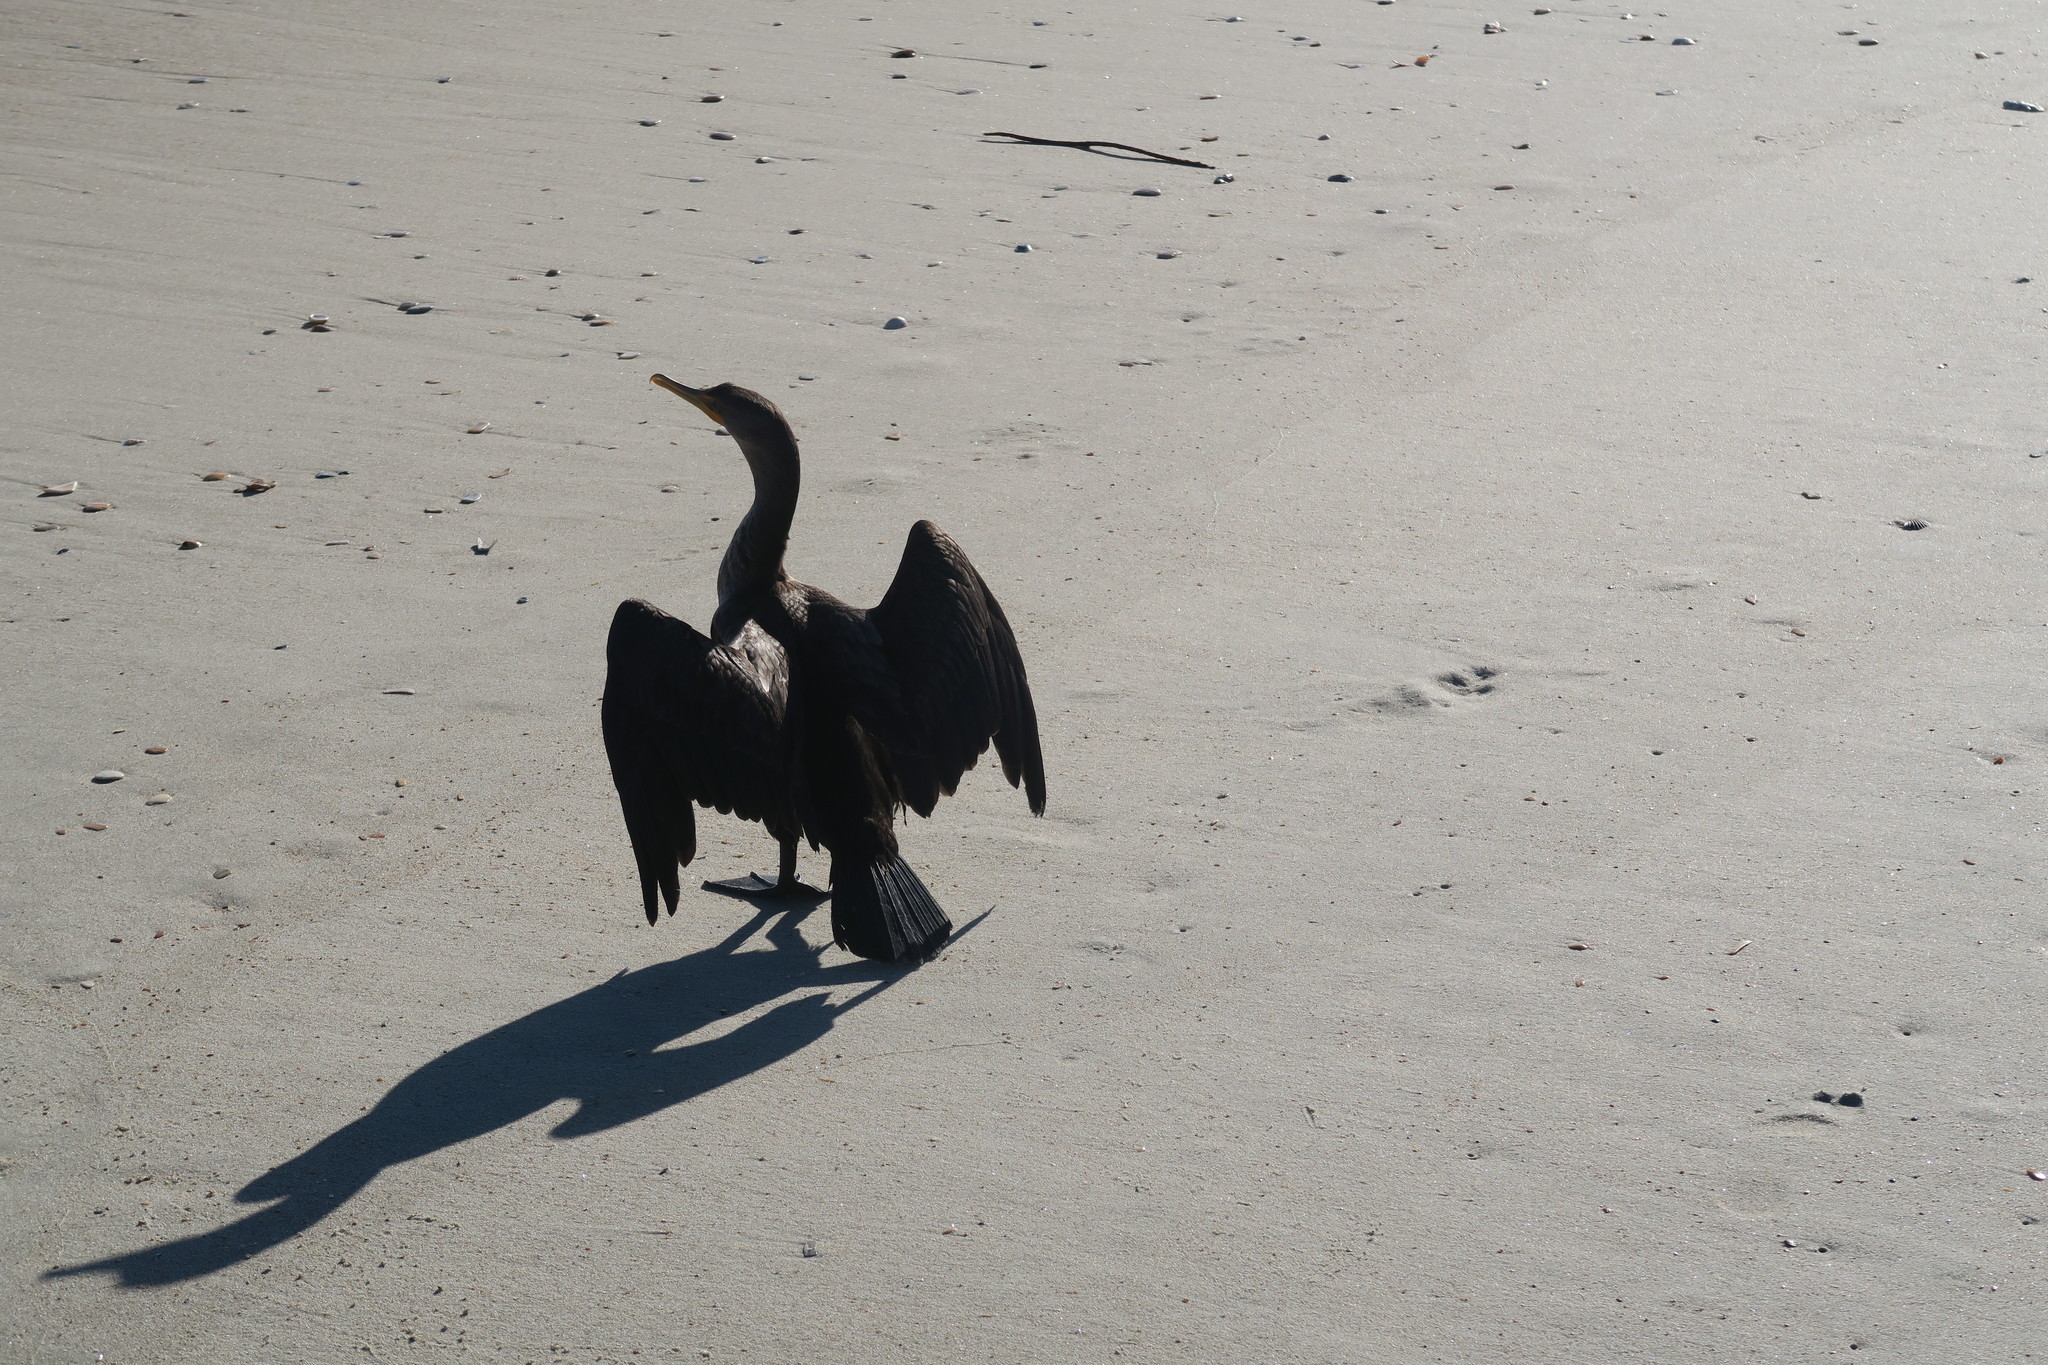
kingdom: Animalia
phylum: Chordata
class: Aves
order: Suliformes
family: Phalacrocoracidae
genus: Phalacrocorax
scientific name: Phalacrocorax auritus
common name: Double-crested cormorant
